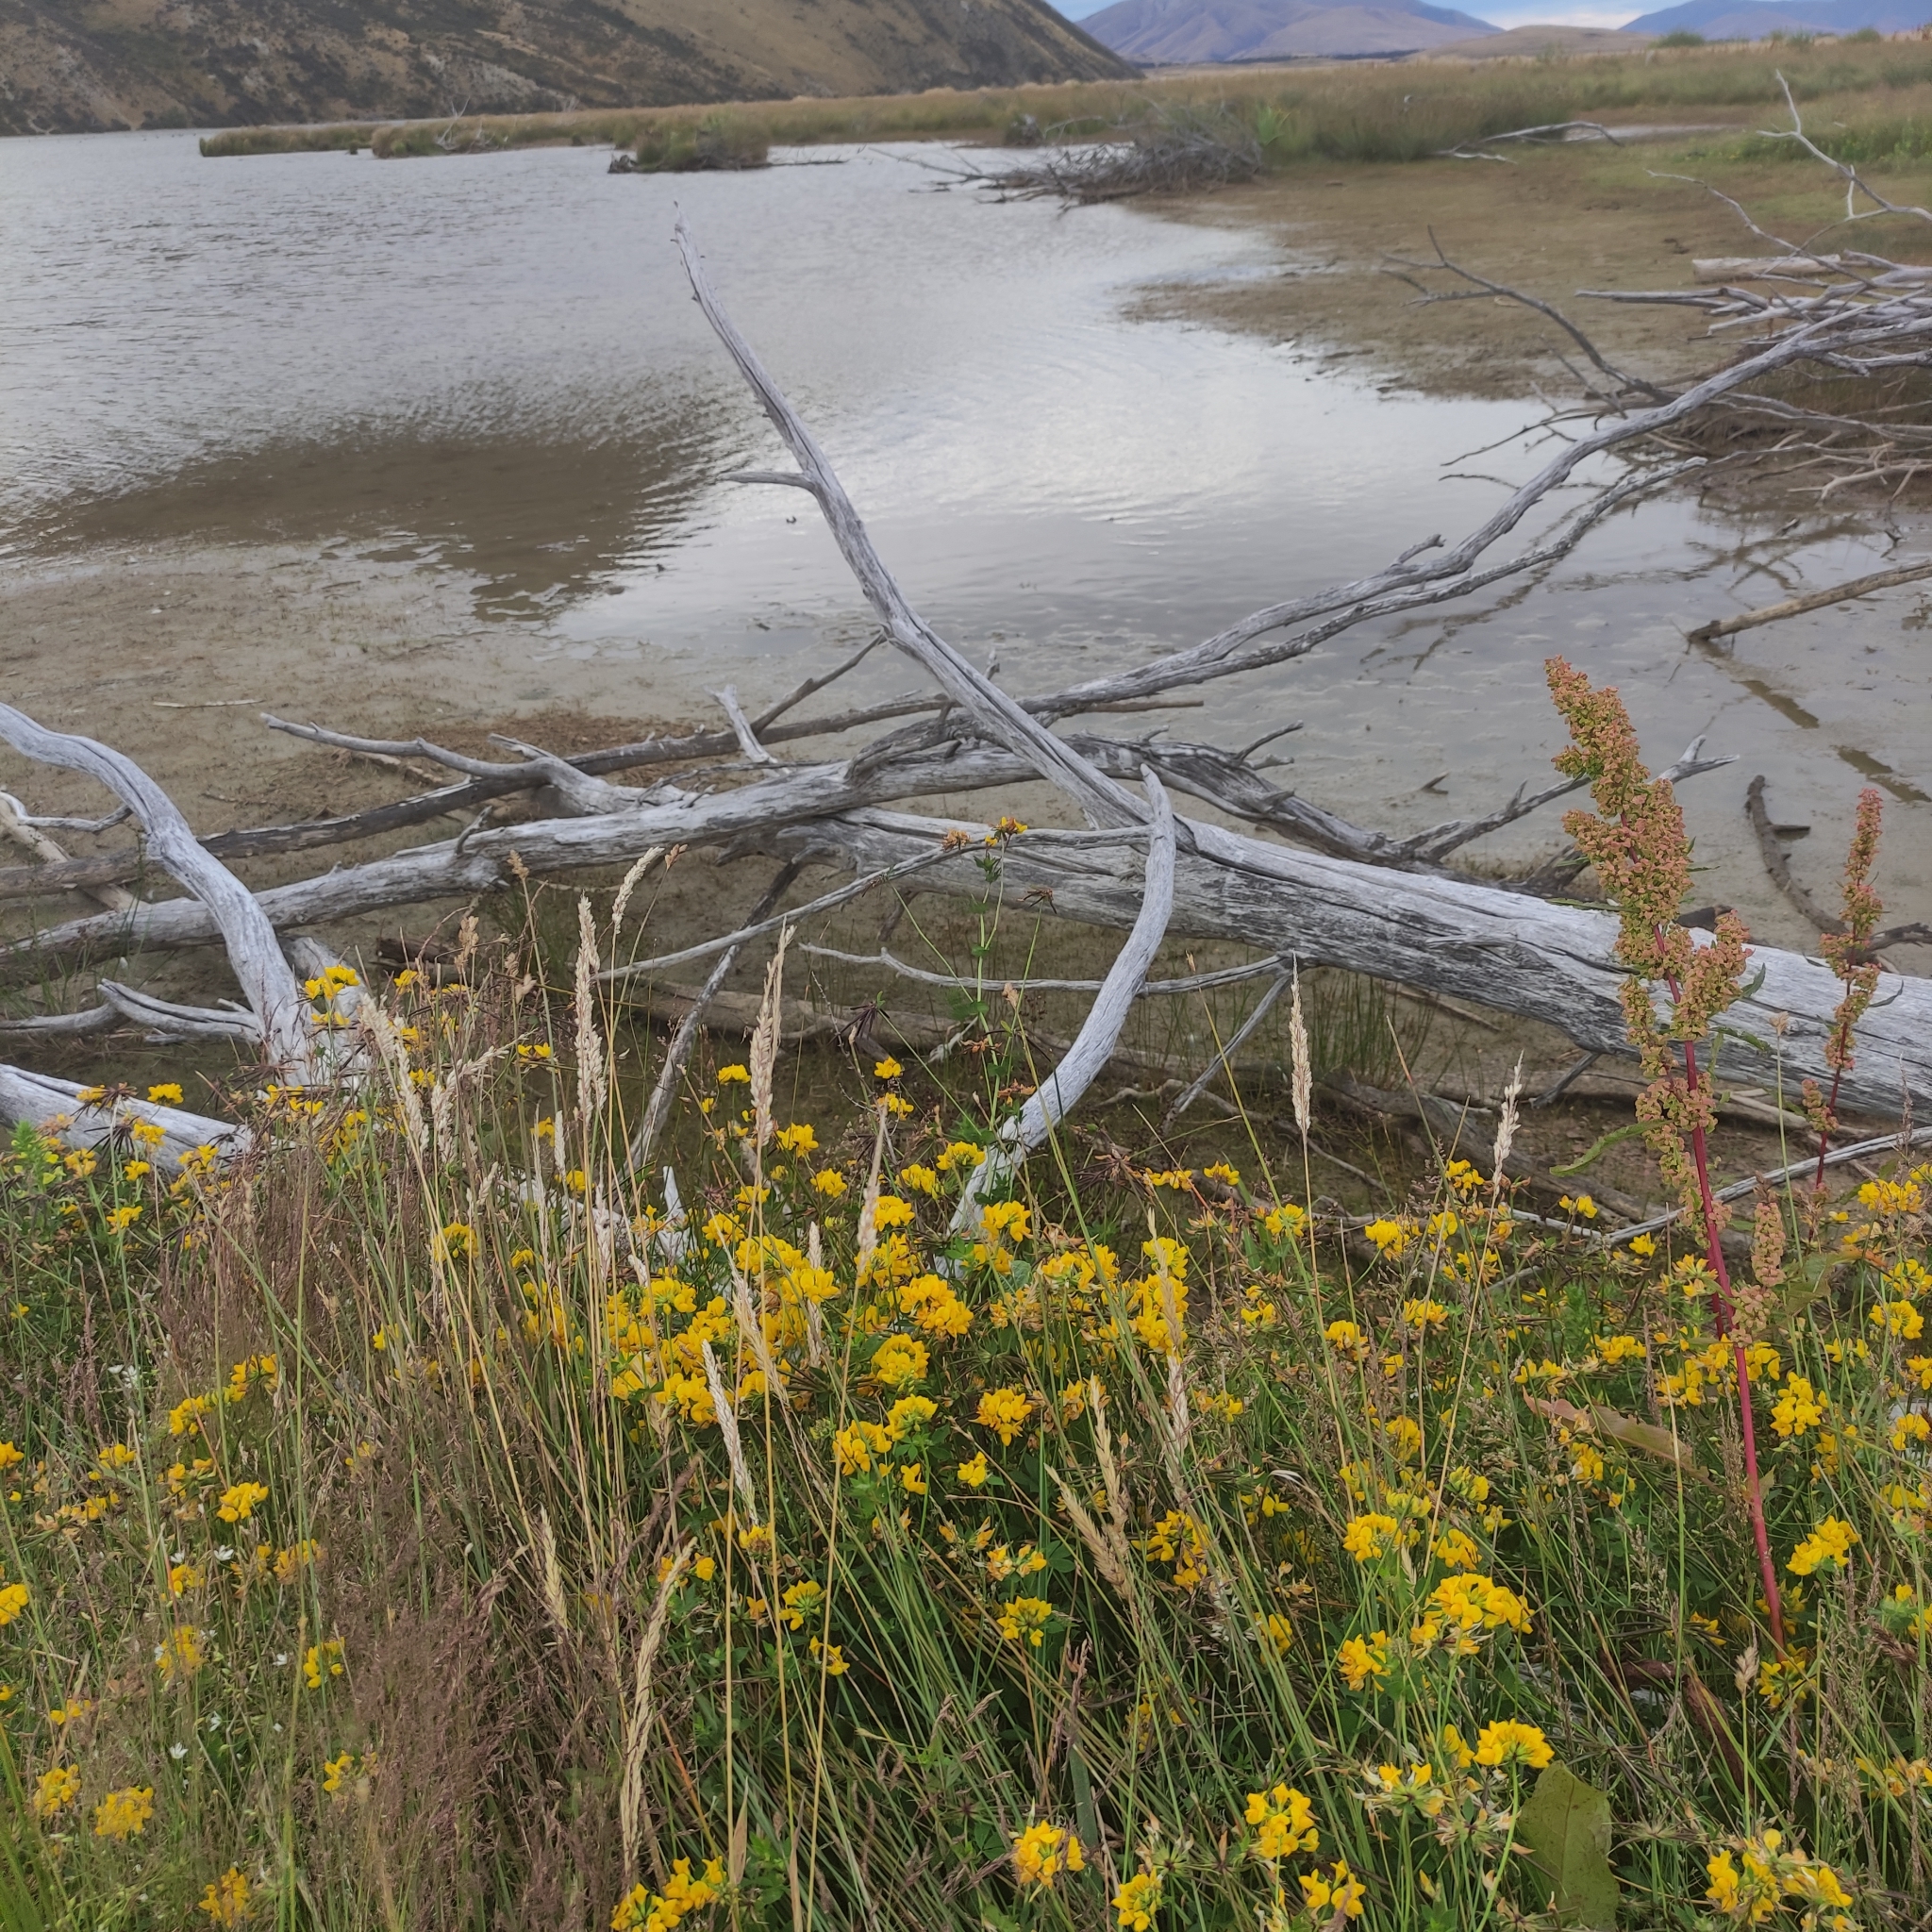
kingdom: Plantae
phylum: Tracheophyta
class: Magnoliopsida
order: Fabales
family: Fabaceae
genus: Lotus
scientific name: Lotus pedunculatus
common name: Greater birdsfoot-trefoil
